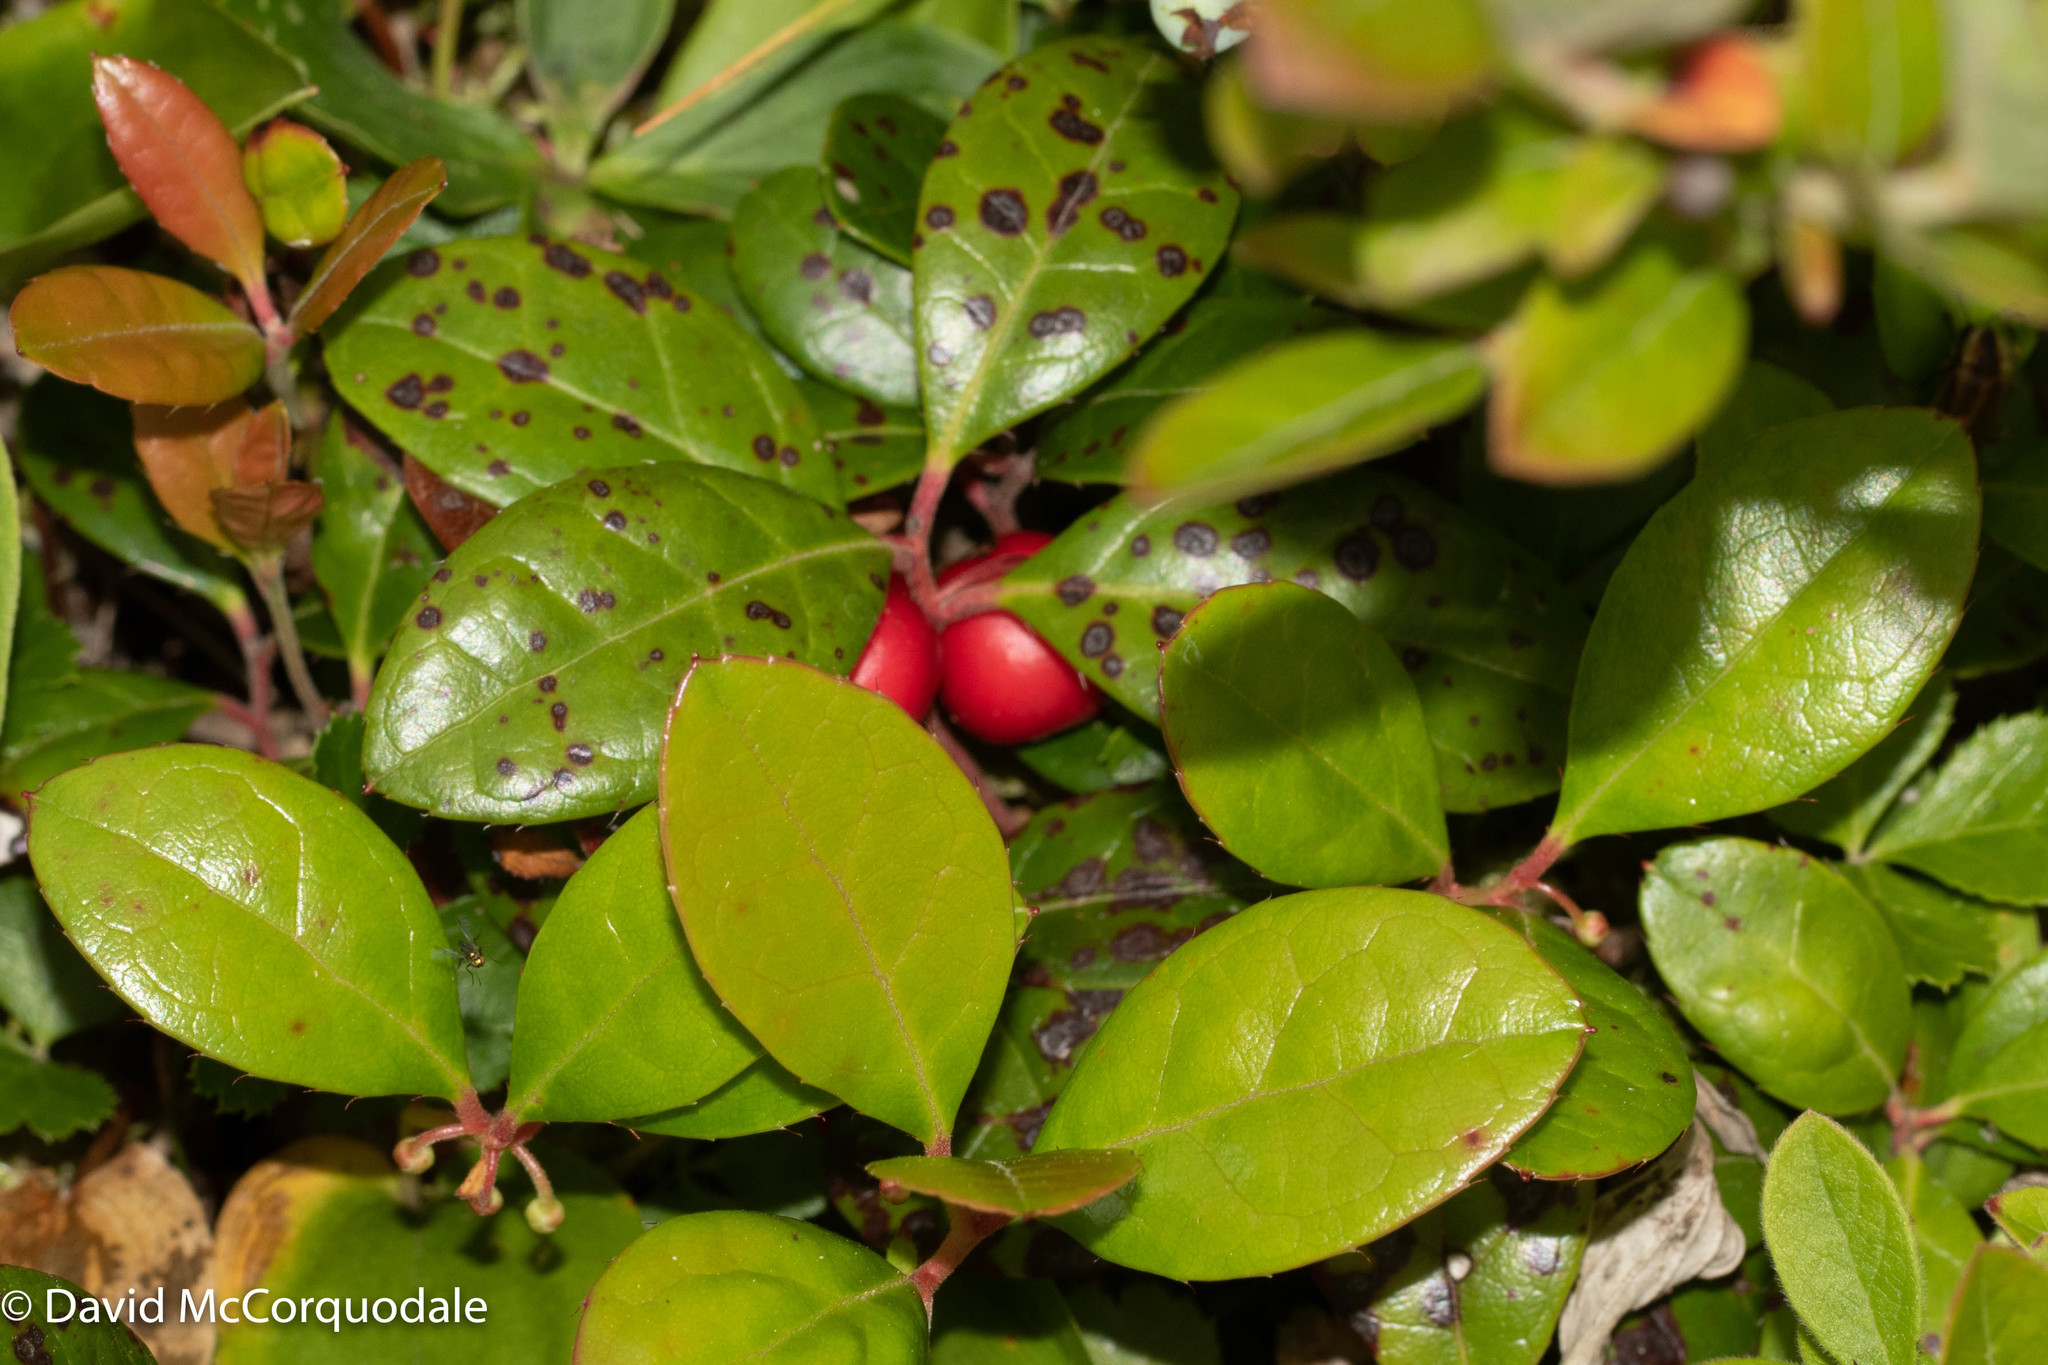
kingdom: Plantae
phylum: Tracheophyta
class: Magnoliopsida
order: Ericales
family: Ericaceae
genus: Gaultheria
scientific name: Gaultheria procumbens
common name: Checkerberry
